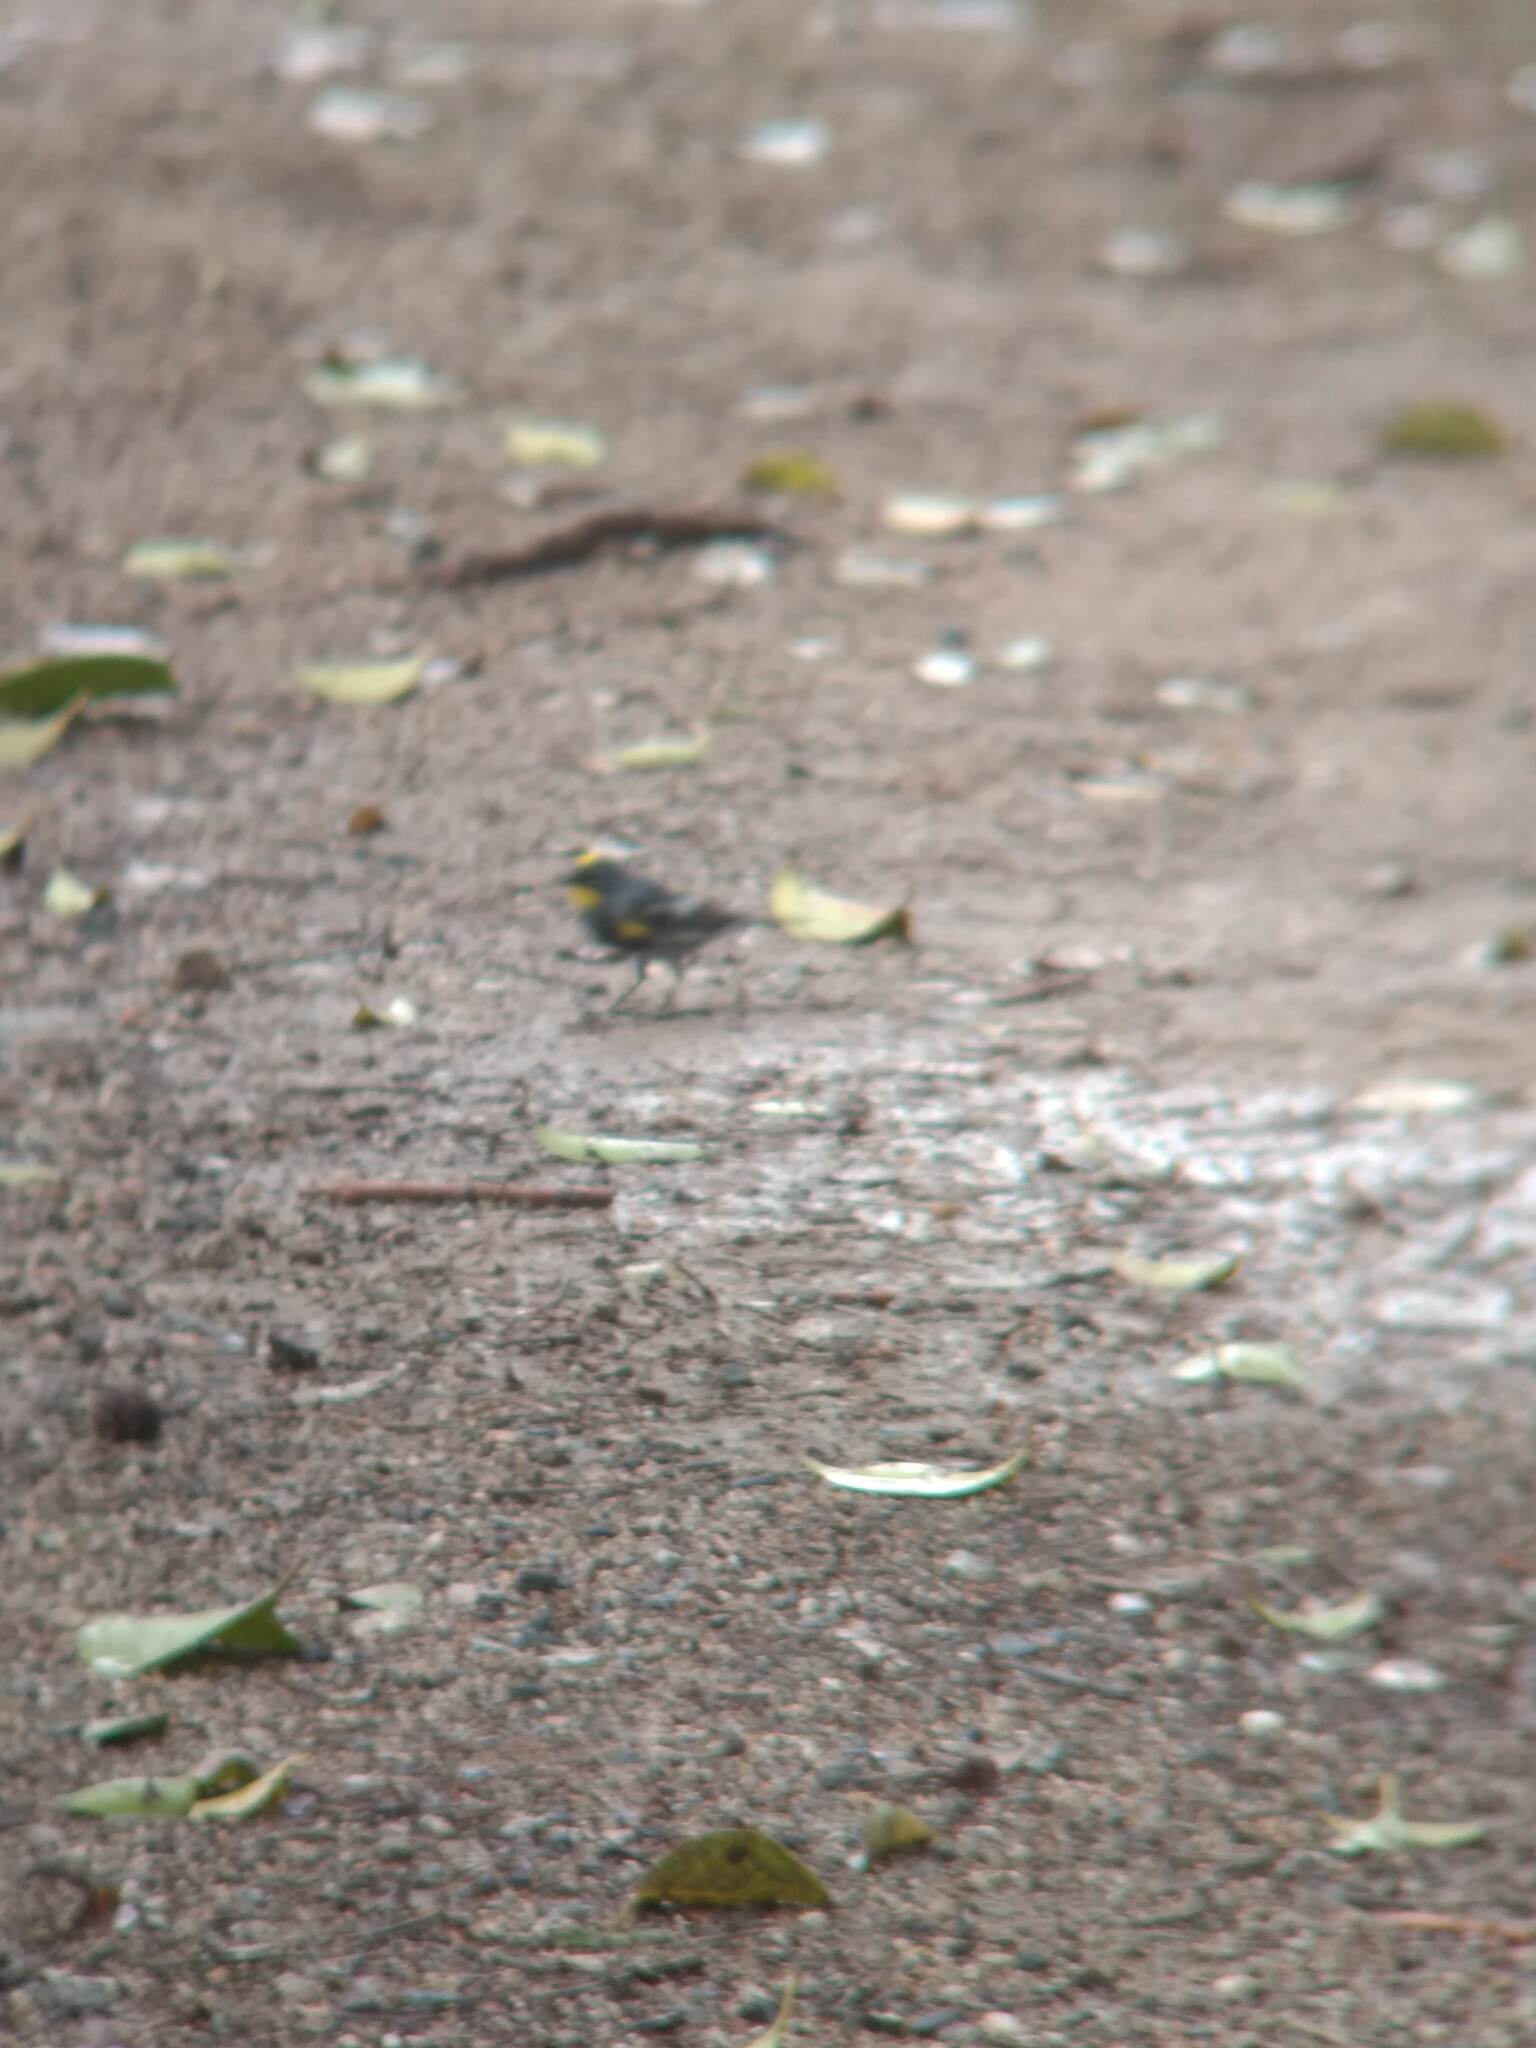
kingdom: Animalia
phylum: Chordata
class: Aves
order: Passeriformes
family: Parulidae
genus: Setophaga
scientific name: Setophaga coronata
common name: Myrtle warbler
